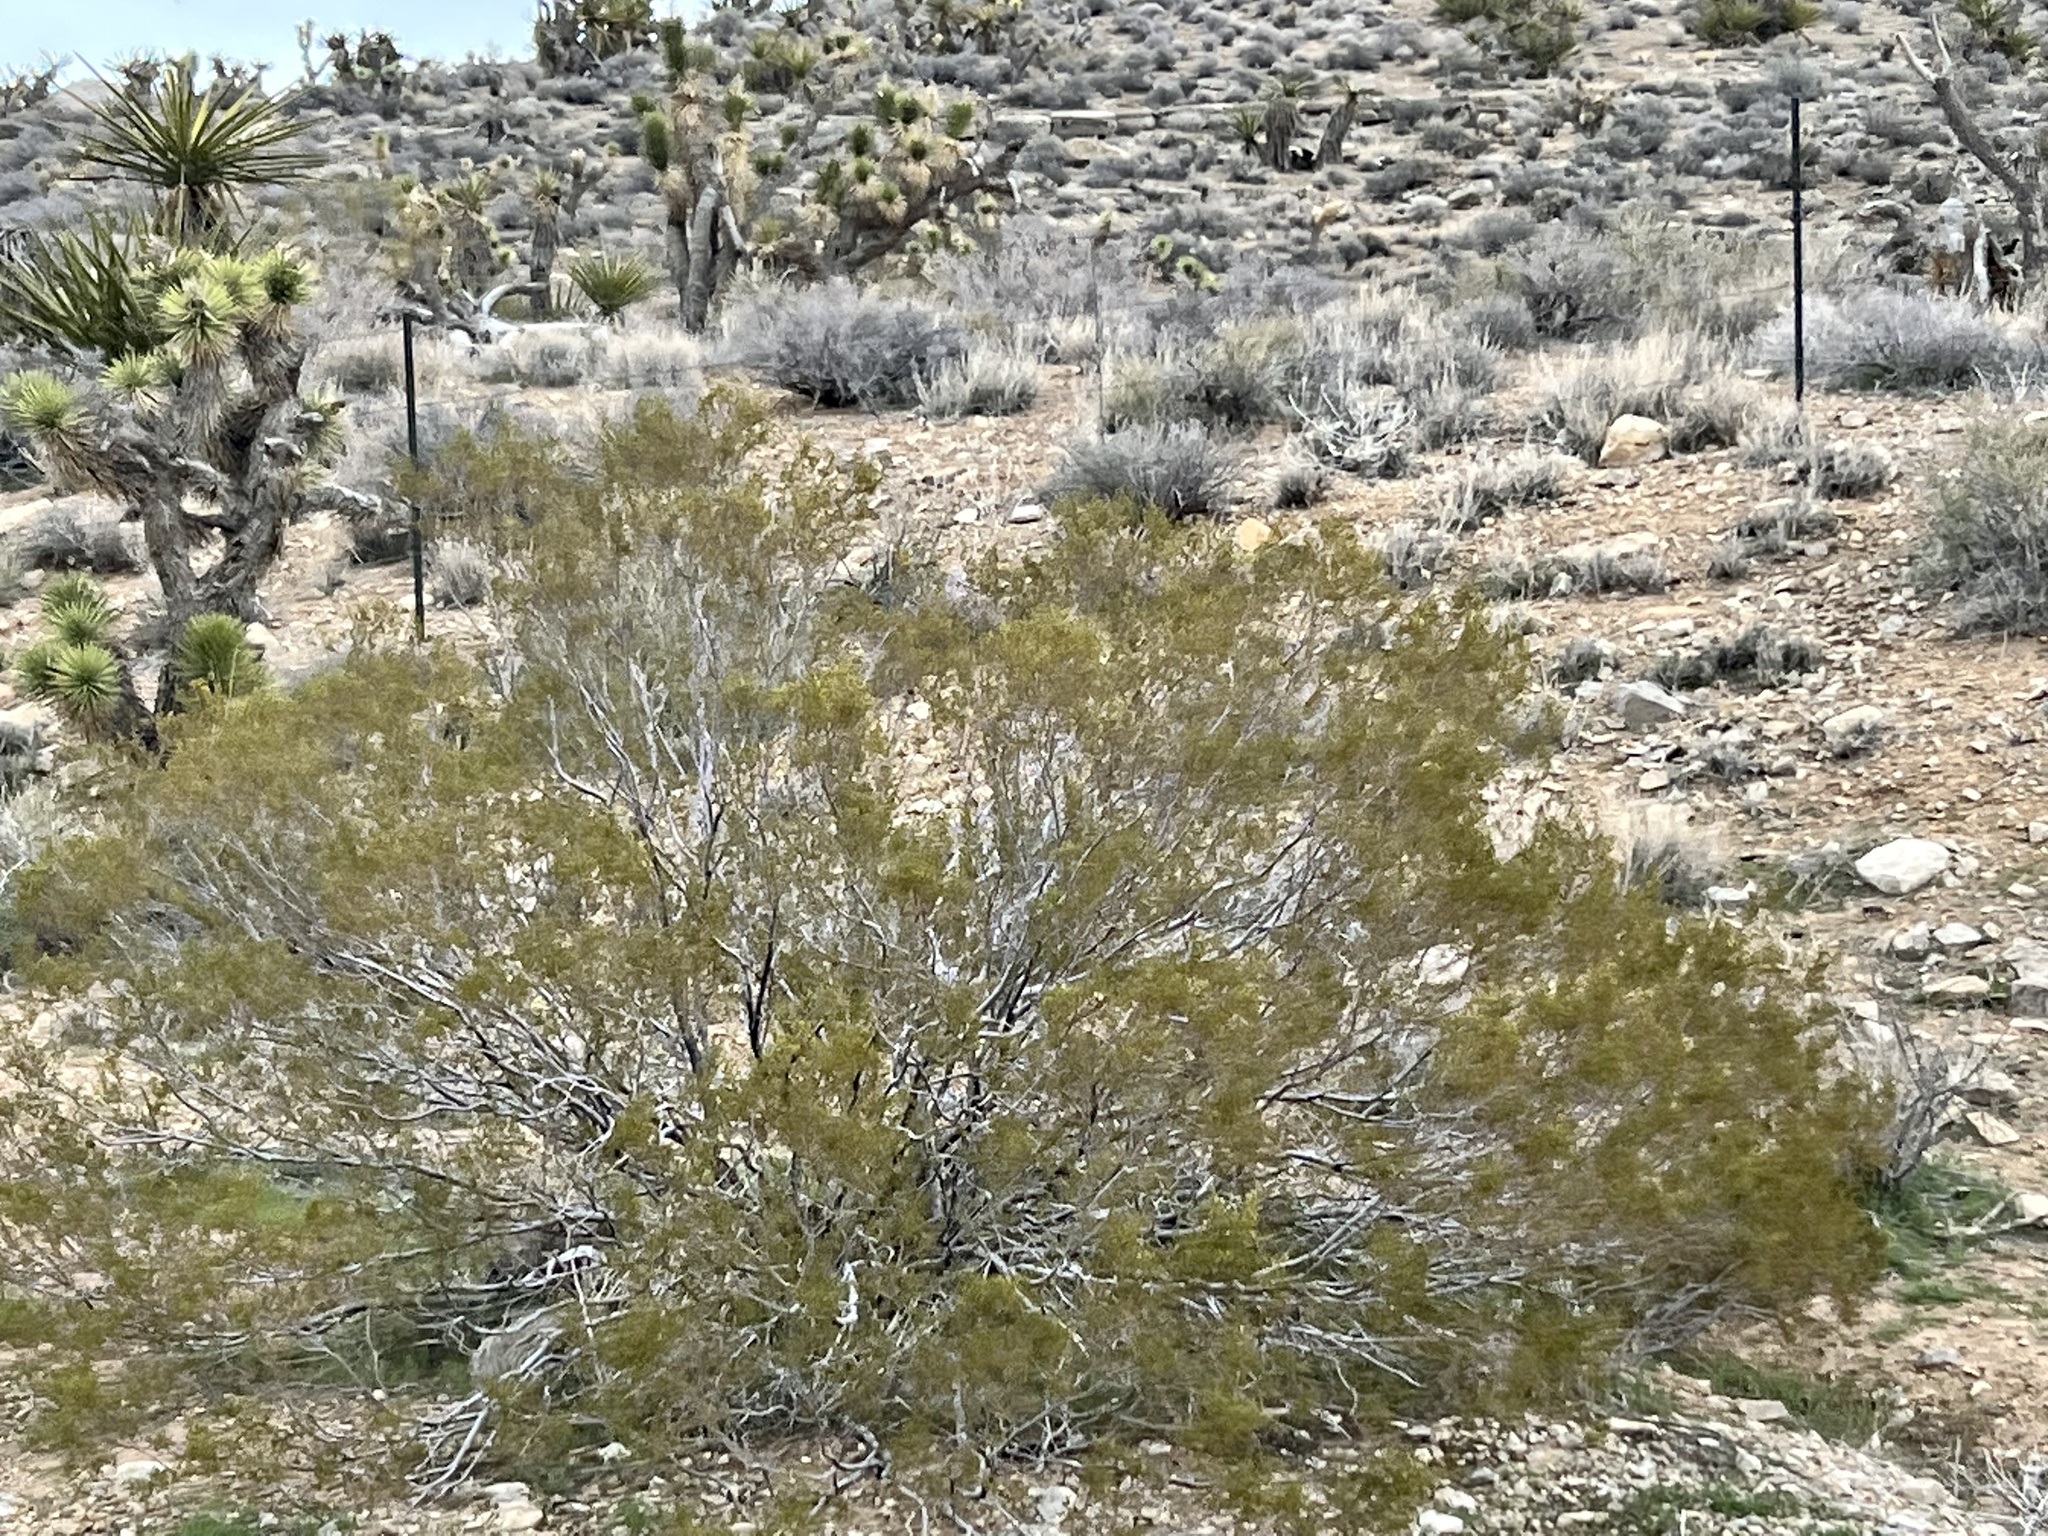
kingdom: Plantae
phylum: Tracheophyta
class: Magnoliopsida
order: Zygophyllales
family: Zygophyllaceae
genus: Larrea
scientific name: Larrea tridentata
